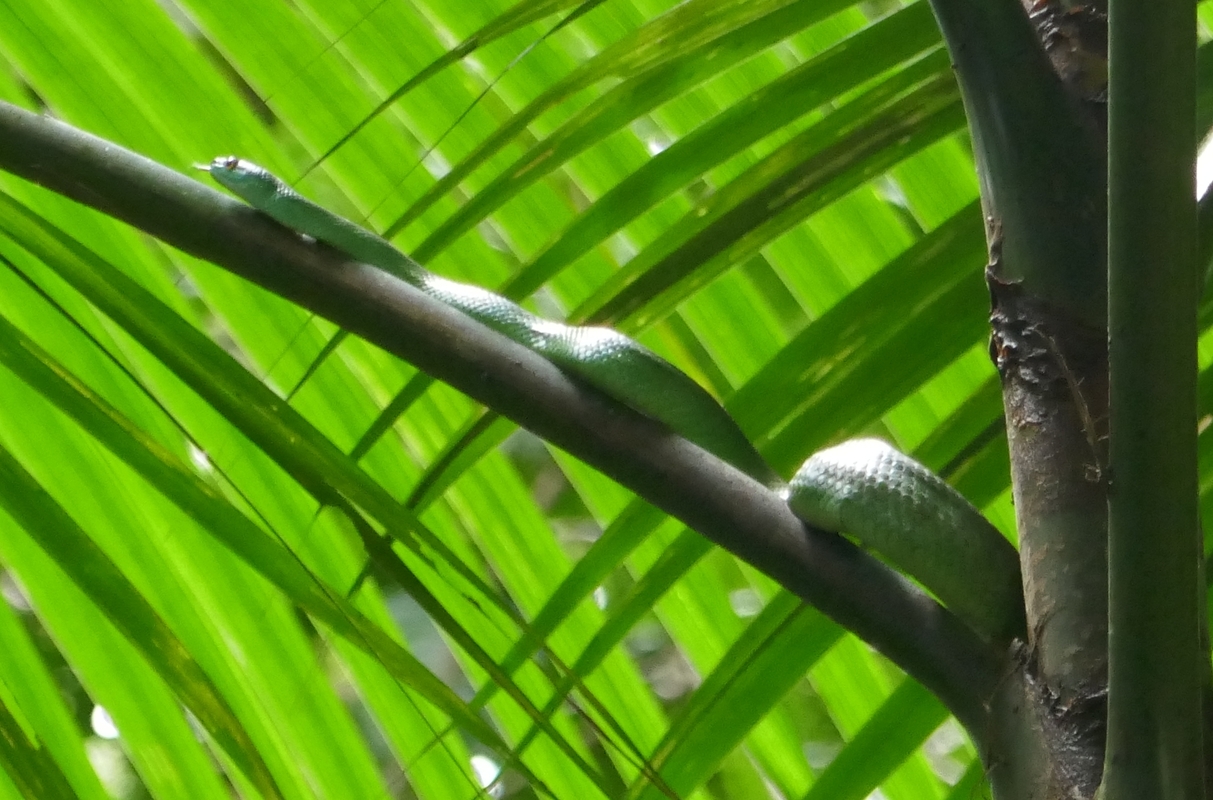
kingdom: Animalia
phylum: Chordata
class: Squamata
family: Colubridae
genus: Chlorosoma
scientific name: Chlorosoma viridissimum
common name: Common green racer
